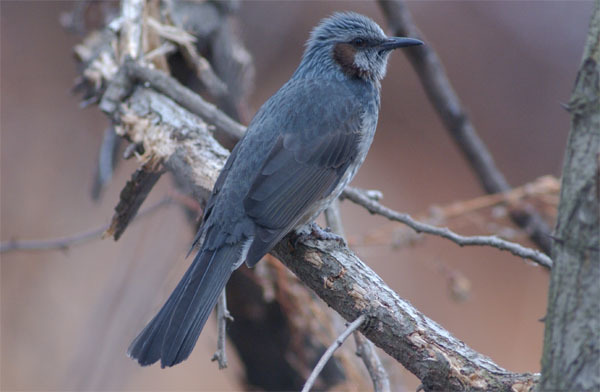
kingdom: Animalia
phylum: Chordata
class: Aves
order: Passeriformes
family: Pycnonotidae
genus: Hypsipetes
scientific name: Hypsipetes amaurotis
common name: Brown-eared bulbul
